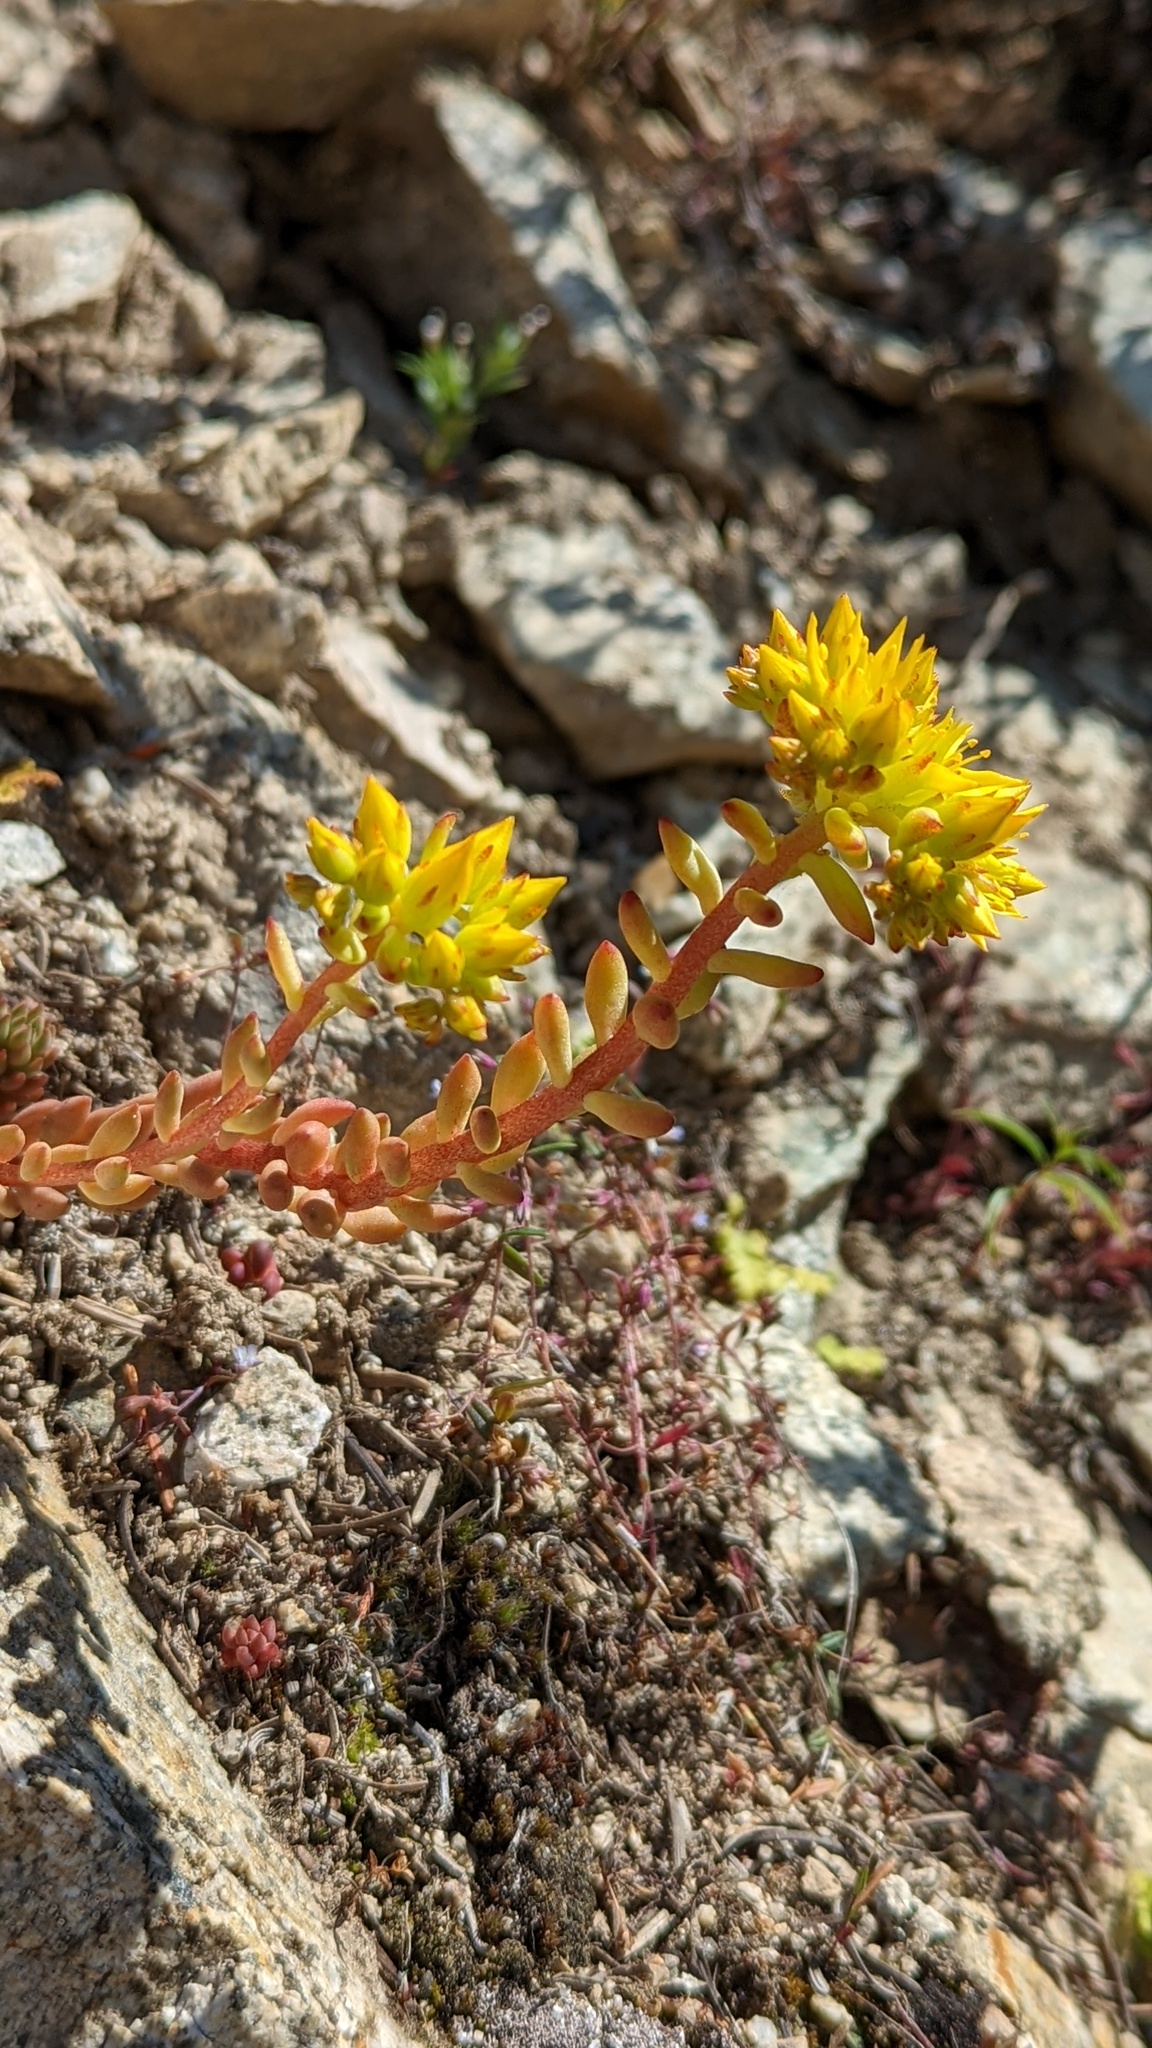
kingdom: Plantae
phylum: Tracheophyta
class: Magnoliopsida
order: Saxifragales
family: Crassulaceae
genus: Sedum
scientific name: Sedum lanceolatum
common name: Common stonecrop
